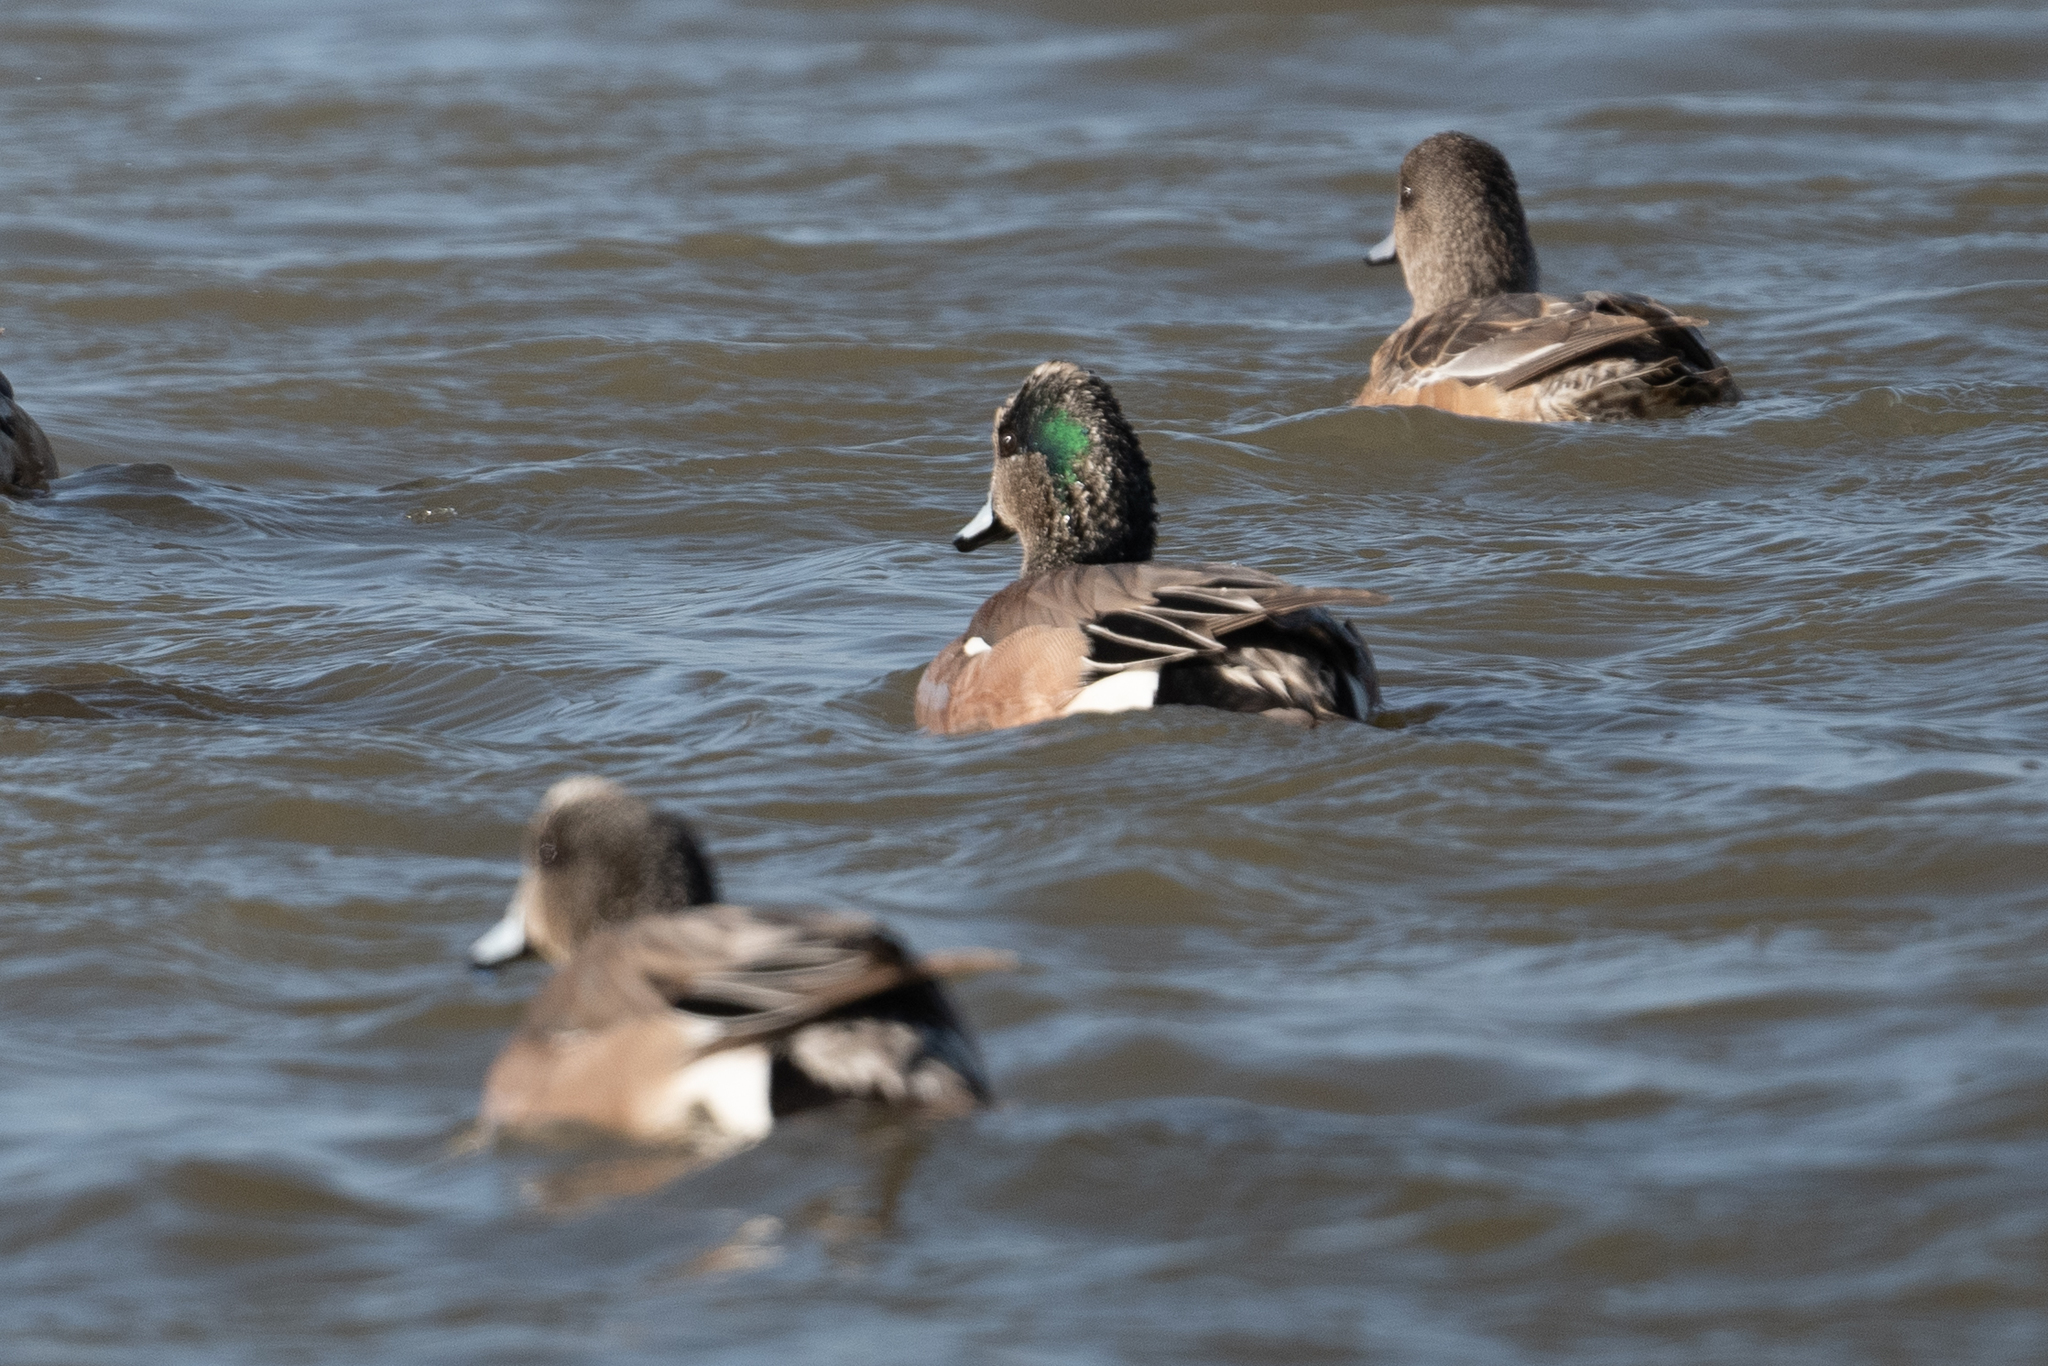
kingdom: Animalia
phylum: Chordata
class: Aves
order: Anseriformes
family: Anatidae
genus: Mareca
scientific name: Mareca americana
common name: American wigeon
